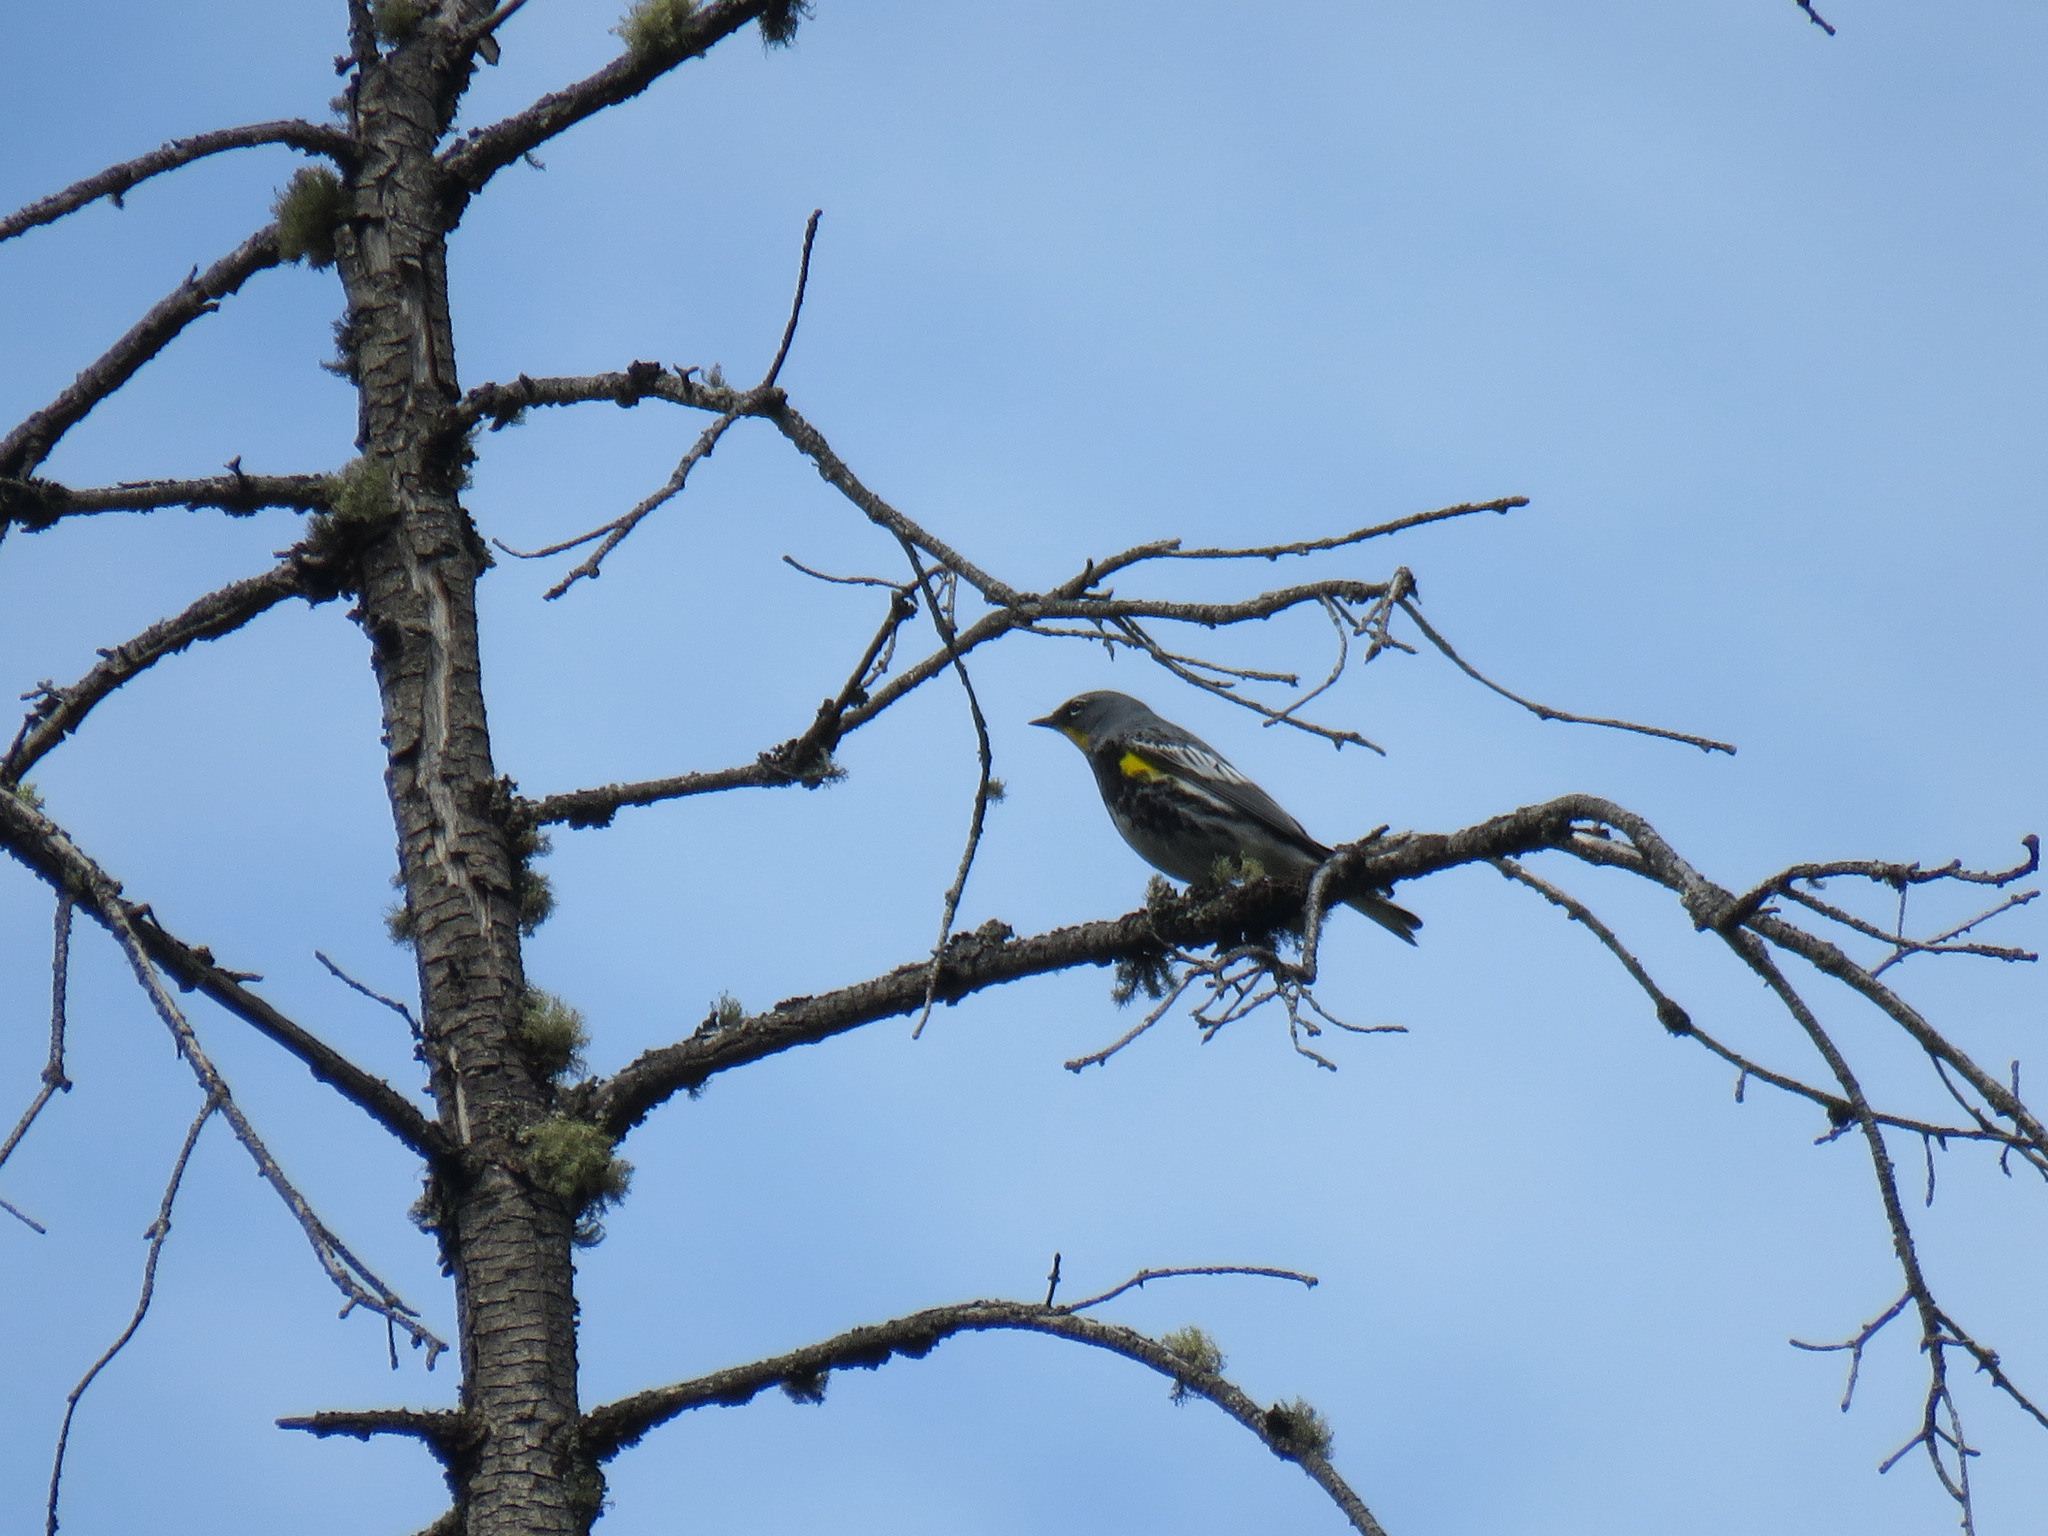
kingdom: Animalia
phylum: Chordata
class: Aves
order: Passeriformes
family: Parulidae
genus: Setophaga
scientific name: Setophaga coronata
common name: Myrtle warbler
